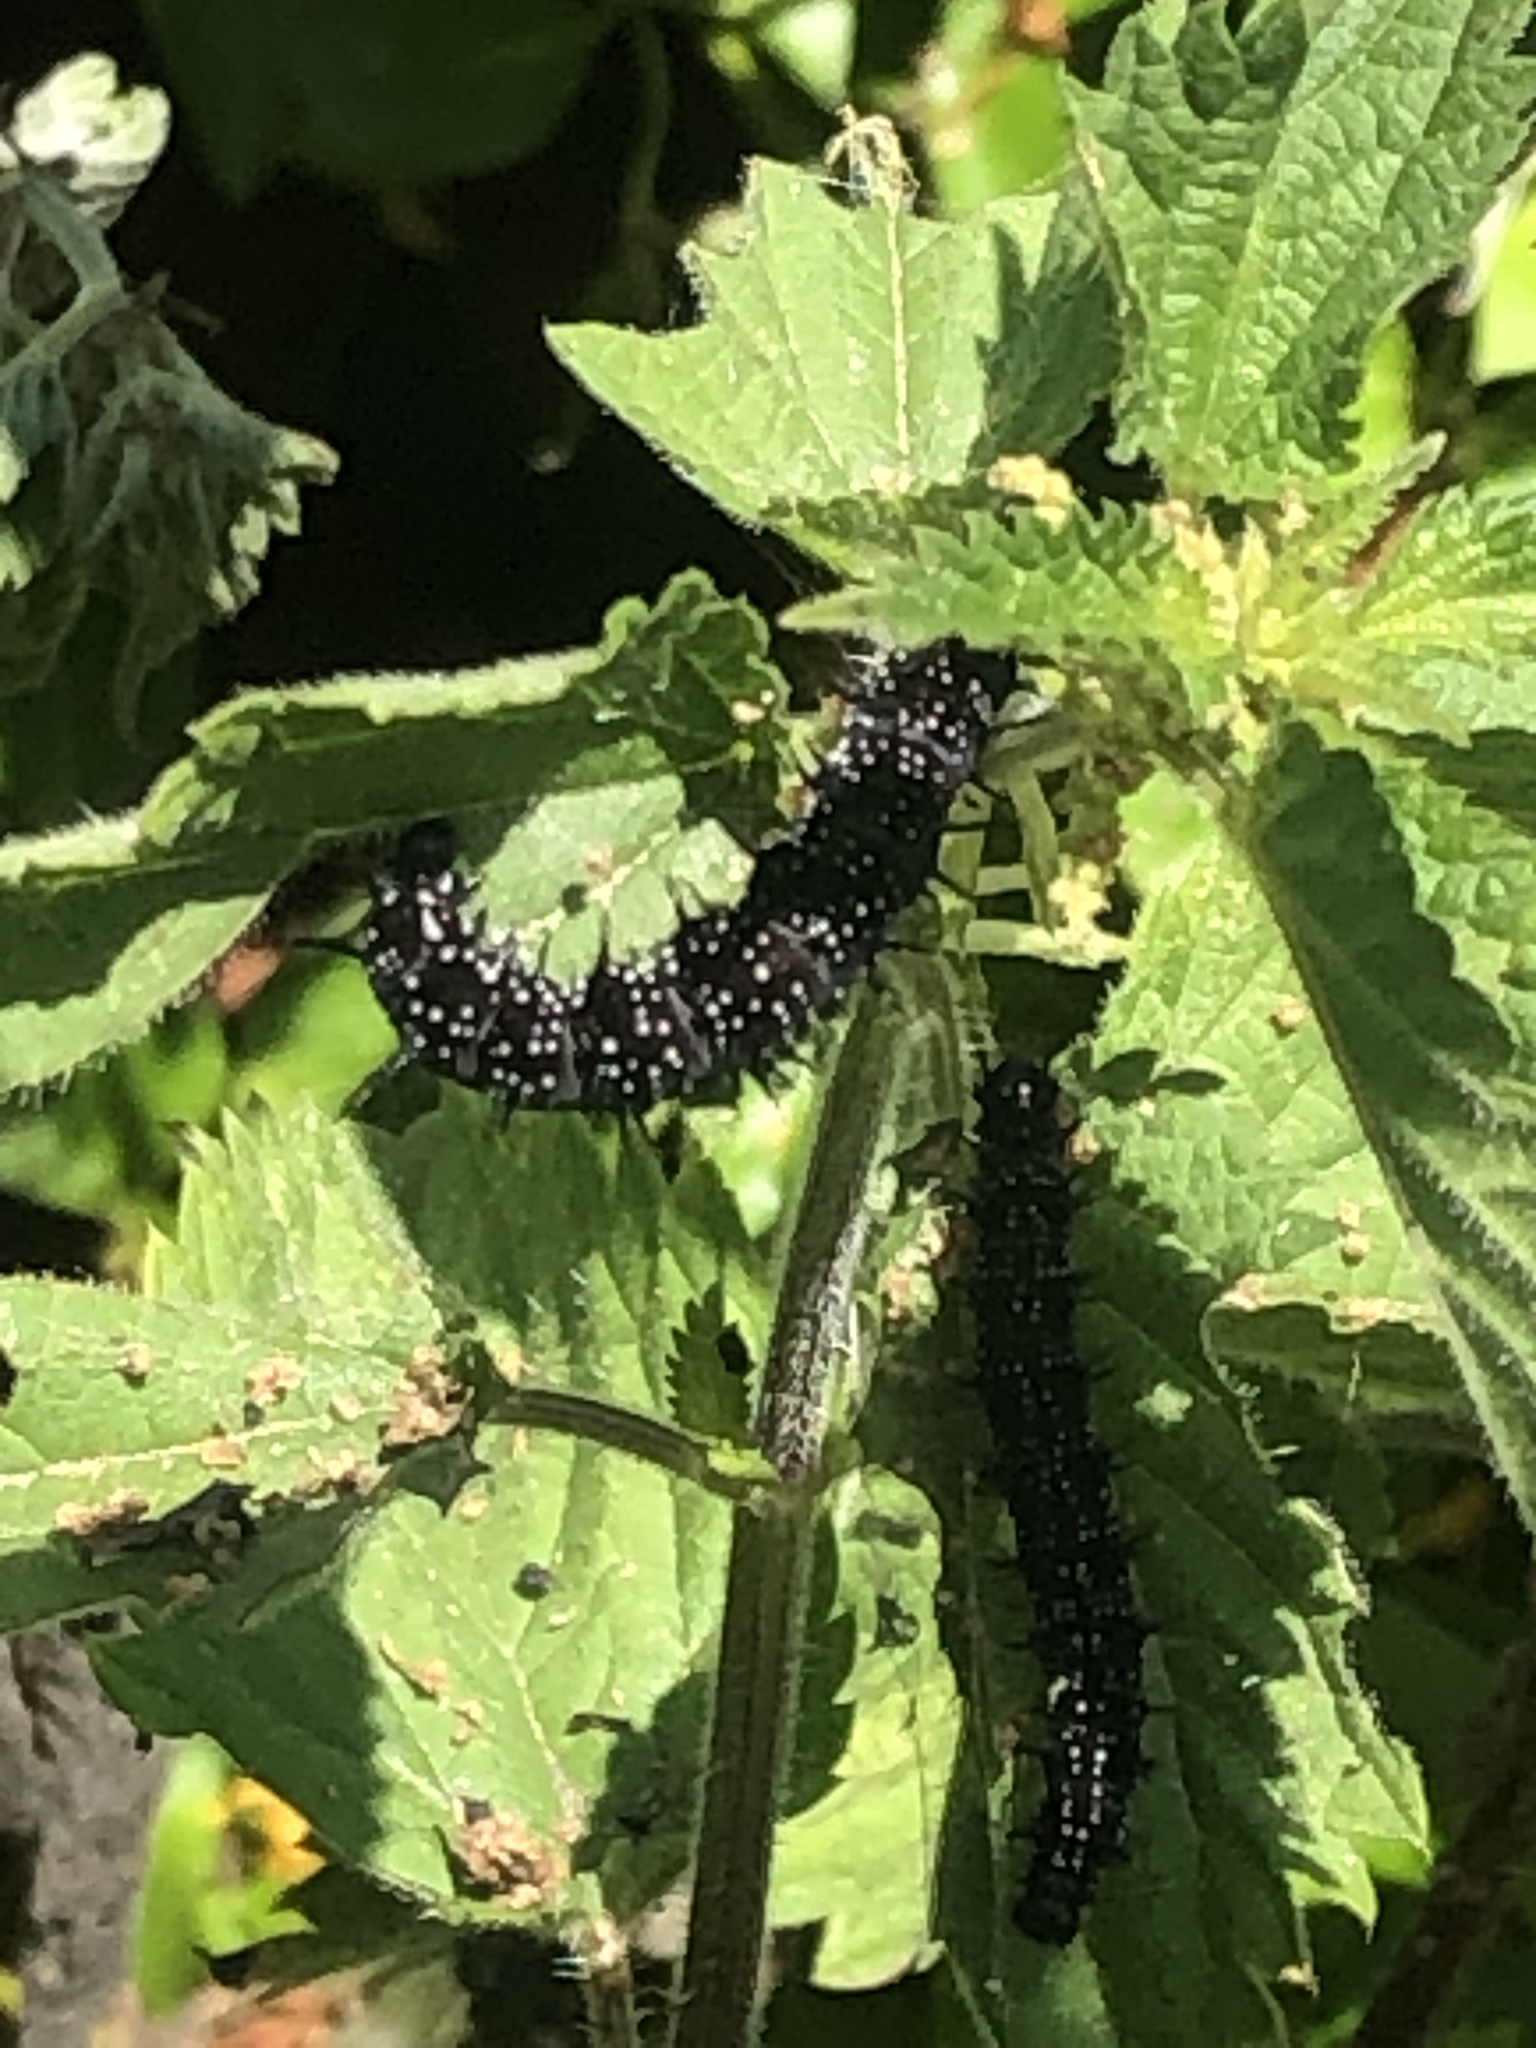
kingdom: Animalia
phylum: Arthropoda
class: Insecta
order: Lepidoptera
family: Nymphalidae
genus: Aglais
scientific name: Aglais io
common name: Peacock
